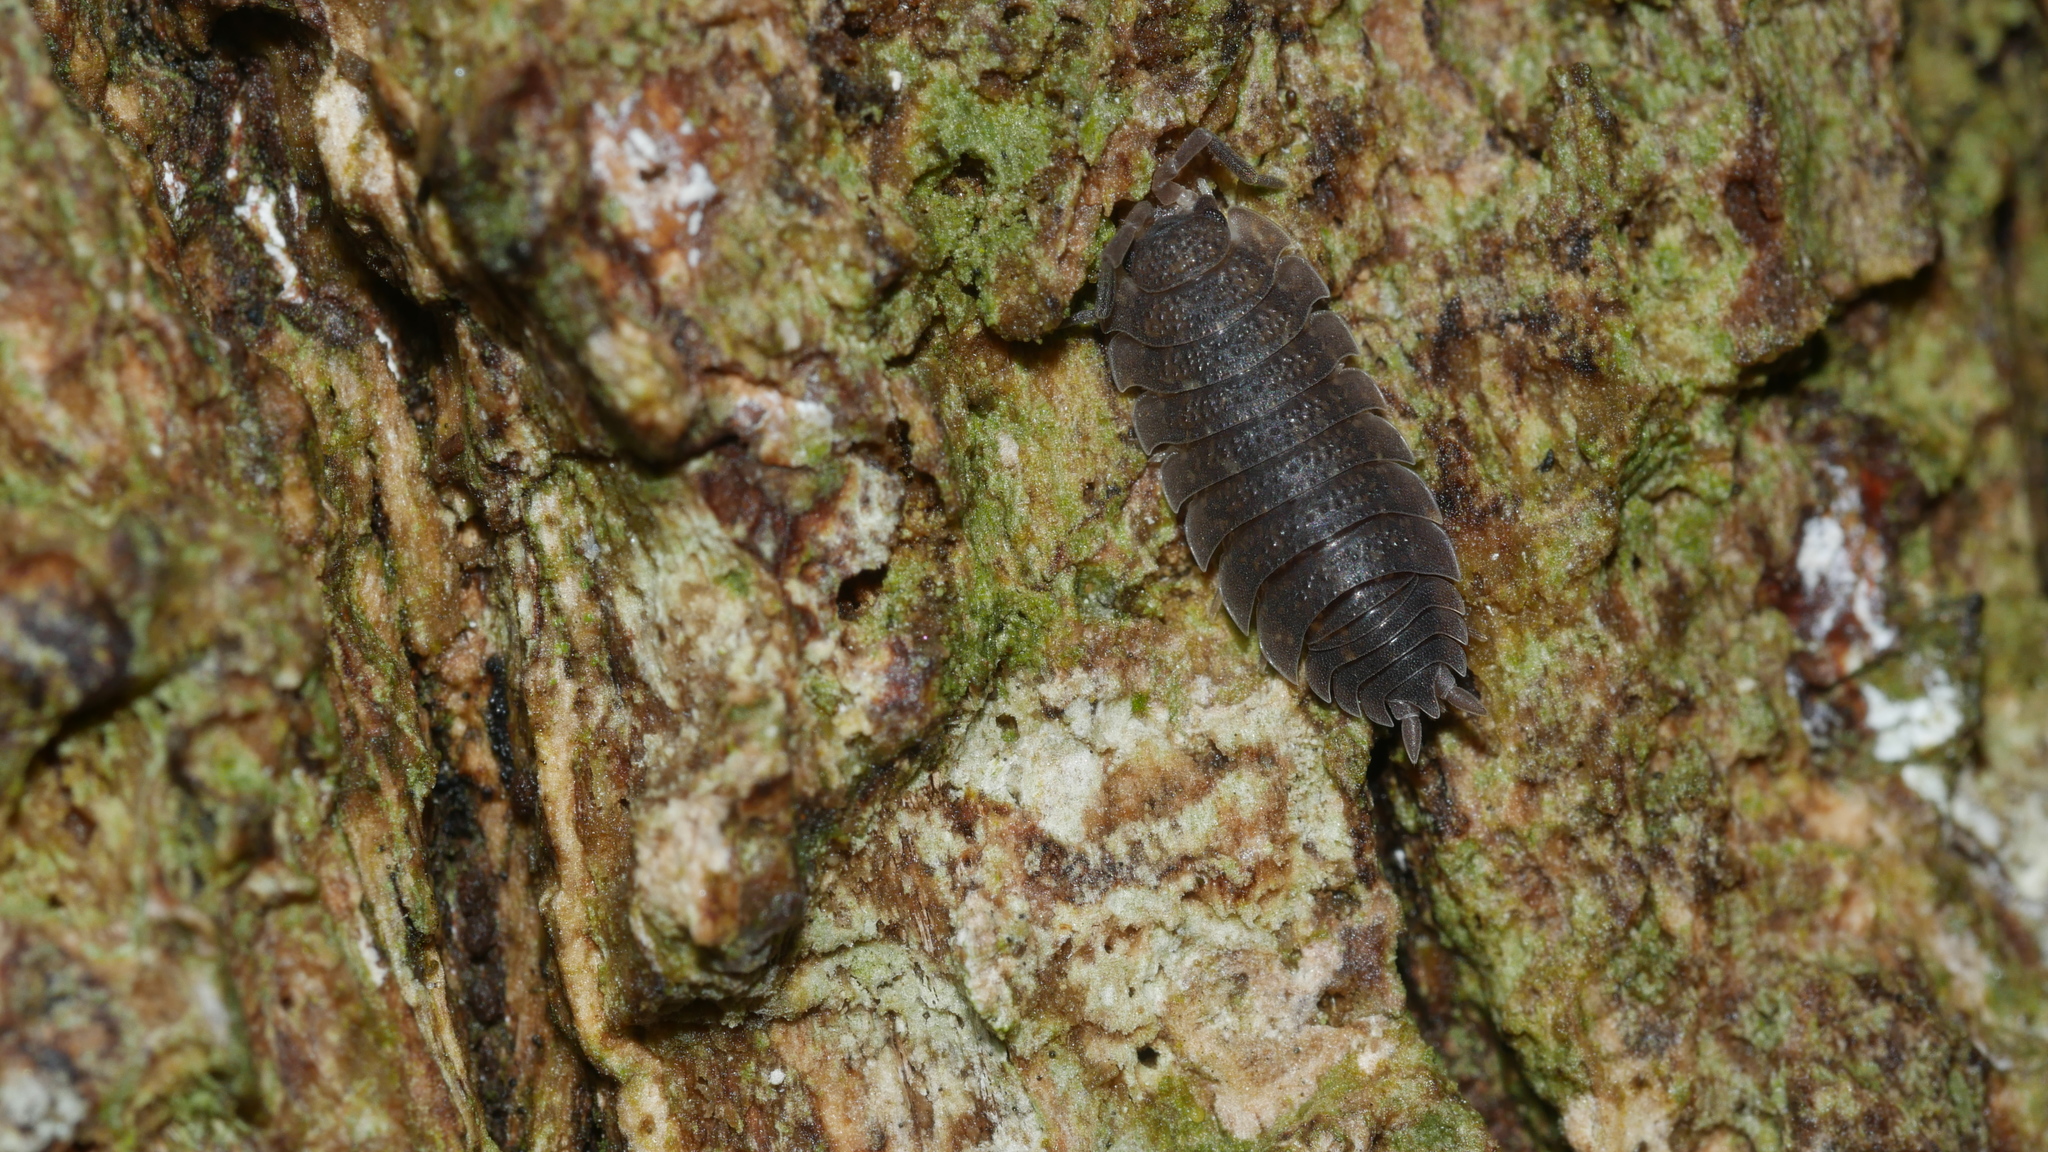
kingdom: Animalia
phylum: Arthropoda
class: Malacostraca
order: Isopoda
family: Porcellionidae
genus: Porcellio
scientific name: Porcellio scaber
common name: Common rough woodlouse
